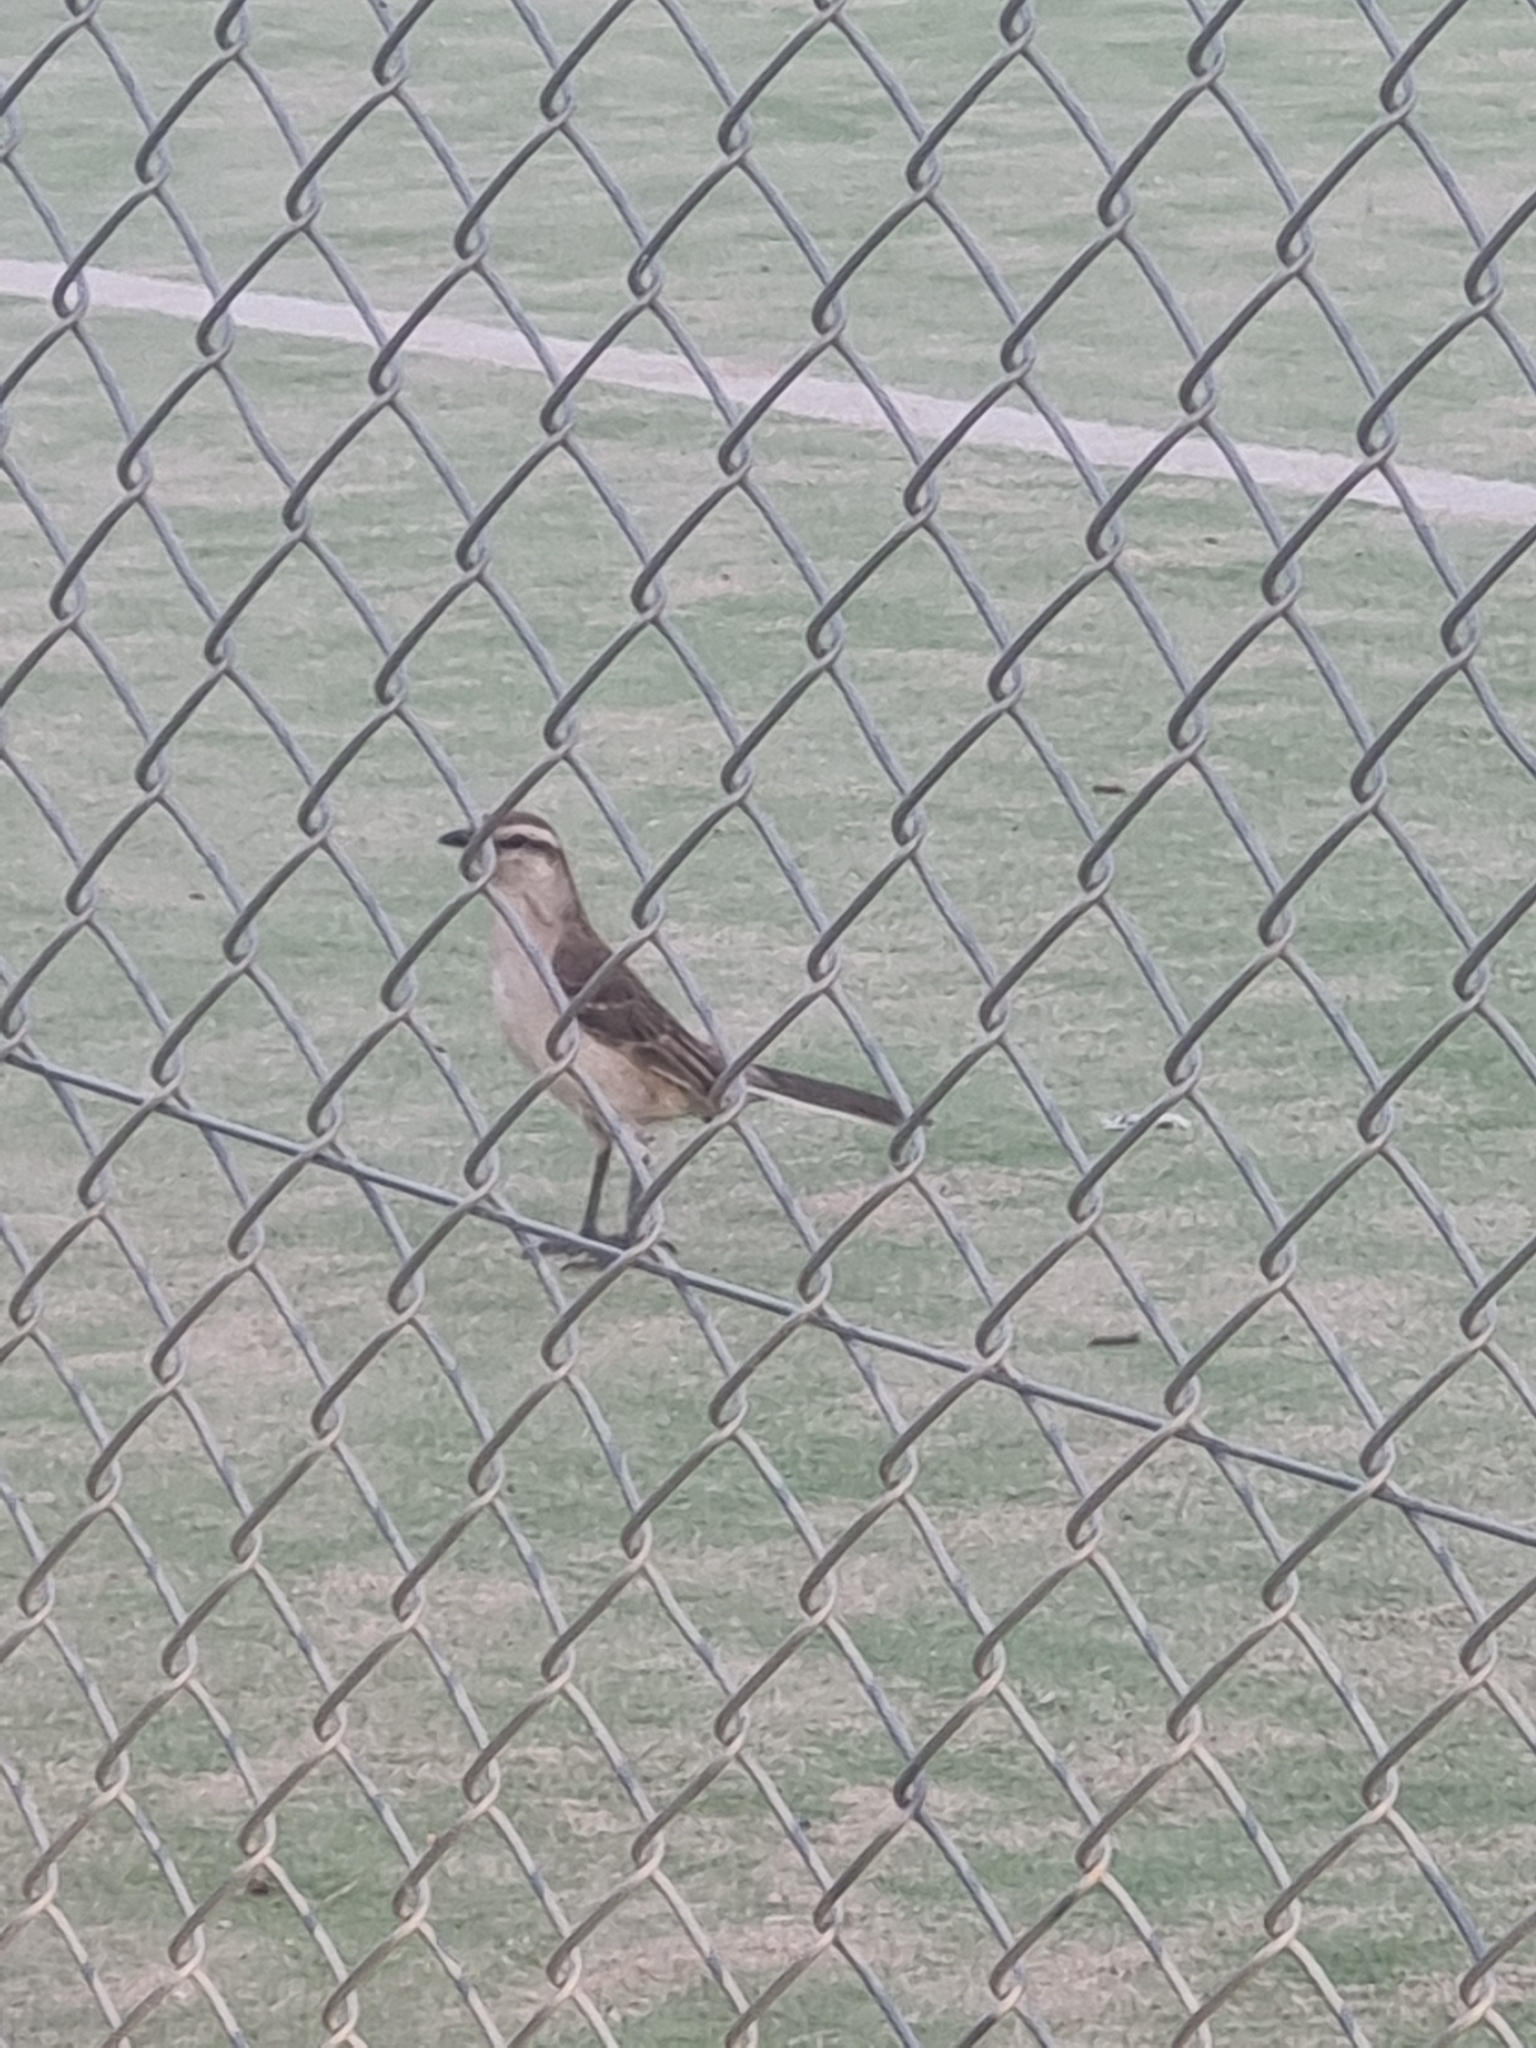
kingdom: Animalia
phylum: Chordata
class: Aves
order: Passeriformes
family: Mimidae
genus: Mimus
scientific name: Mimus saturninus
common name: Chalk-browed mockingbird
